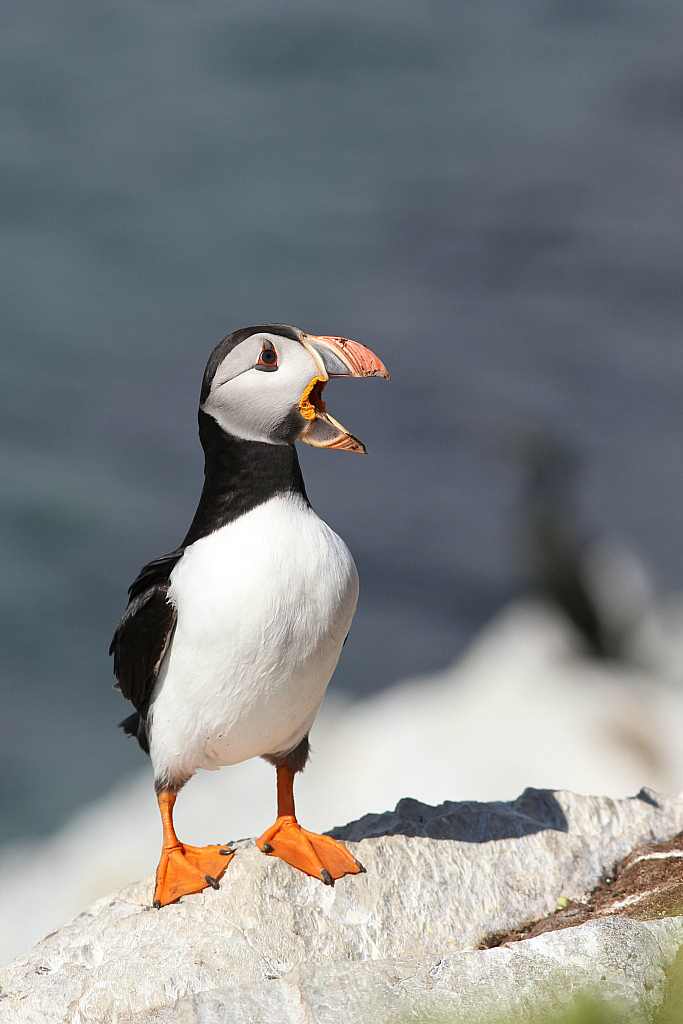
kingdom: Animalia
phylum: Chordata
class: Aves
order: Charadriiformes
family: Alcidae
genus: Fratercula
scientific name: Fratercula arctica
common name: Atlantic puffin
